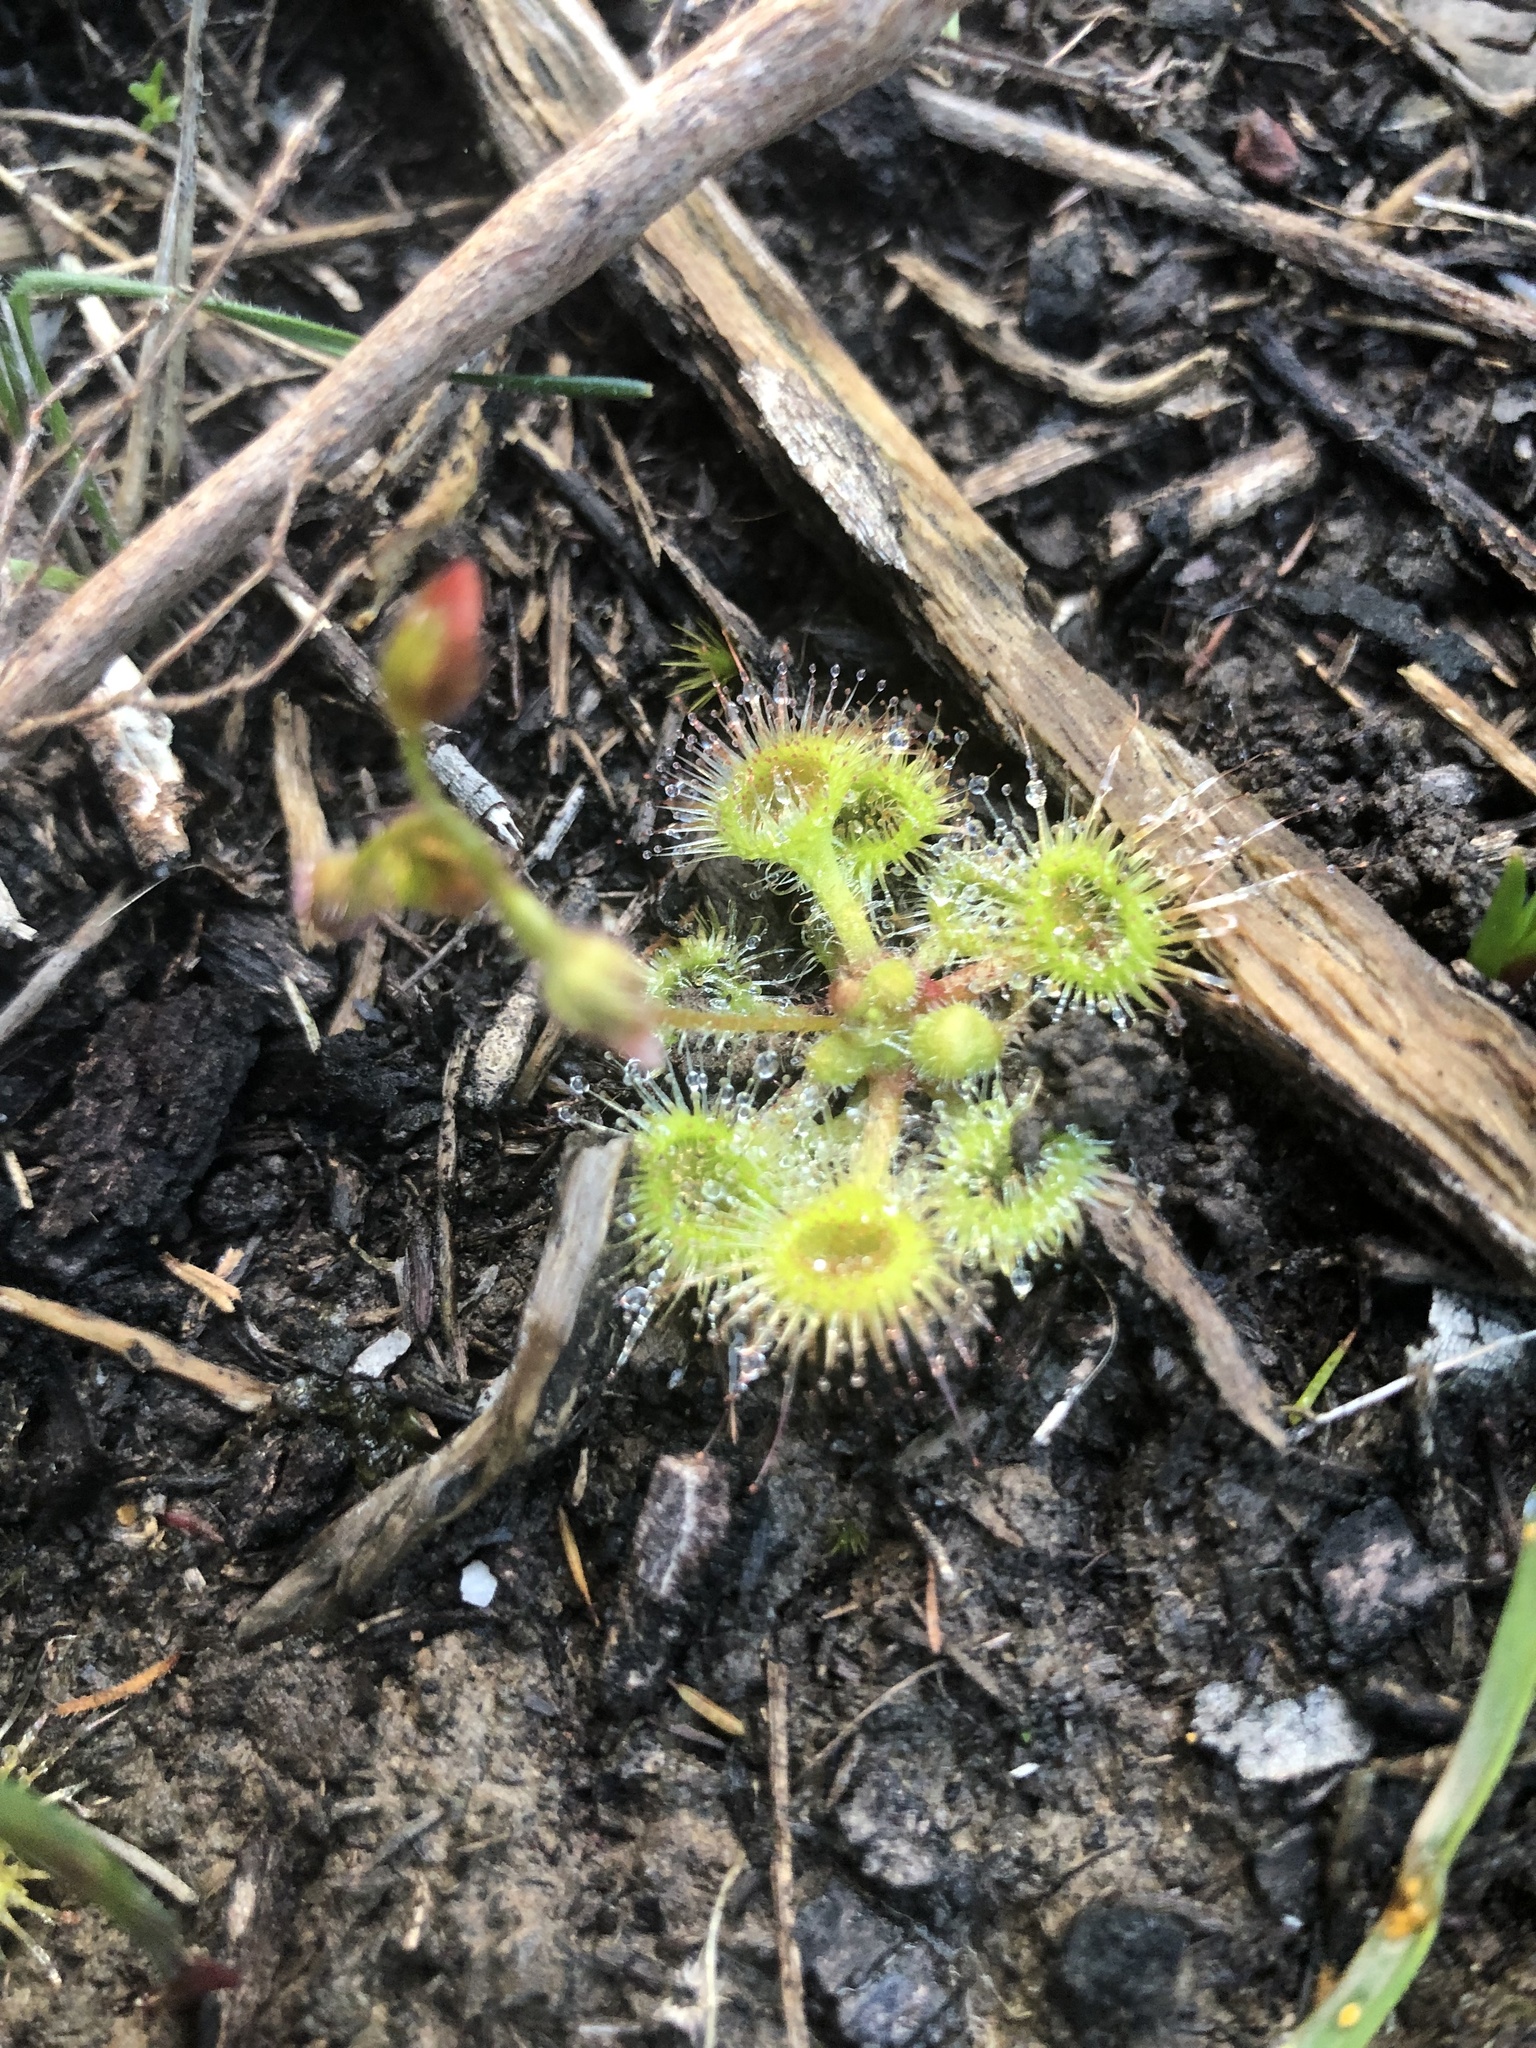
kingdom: Plantae
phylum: Tracheophyta
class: Magnoliopsida
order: Caryophyllales
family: Droseraceae
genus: Drosera
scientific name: Drosera glanduligera
